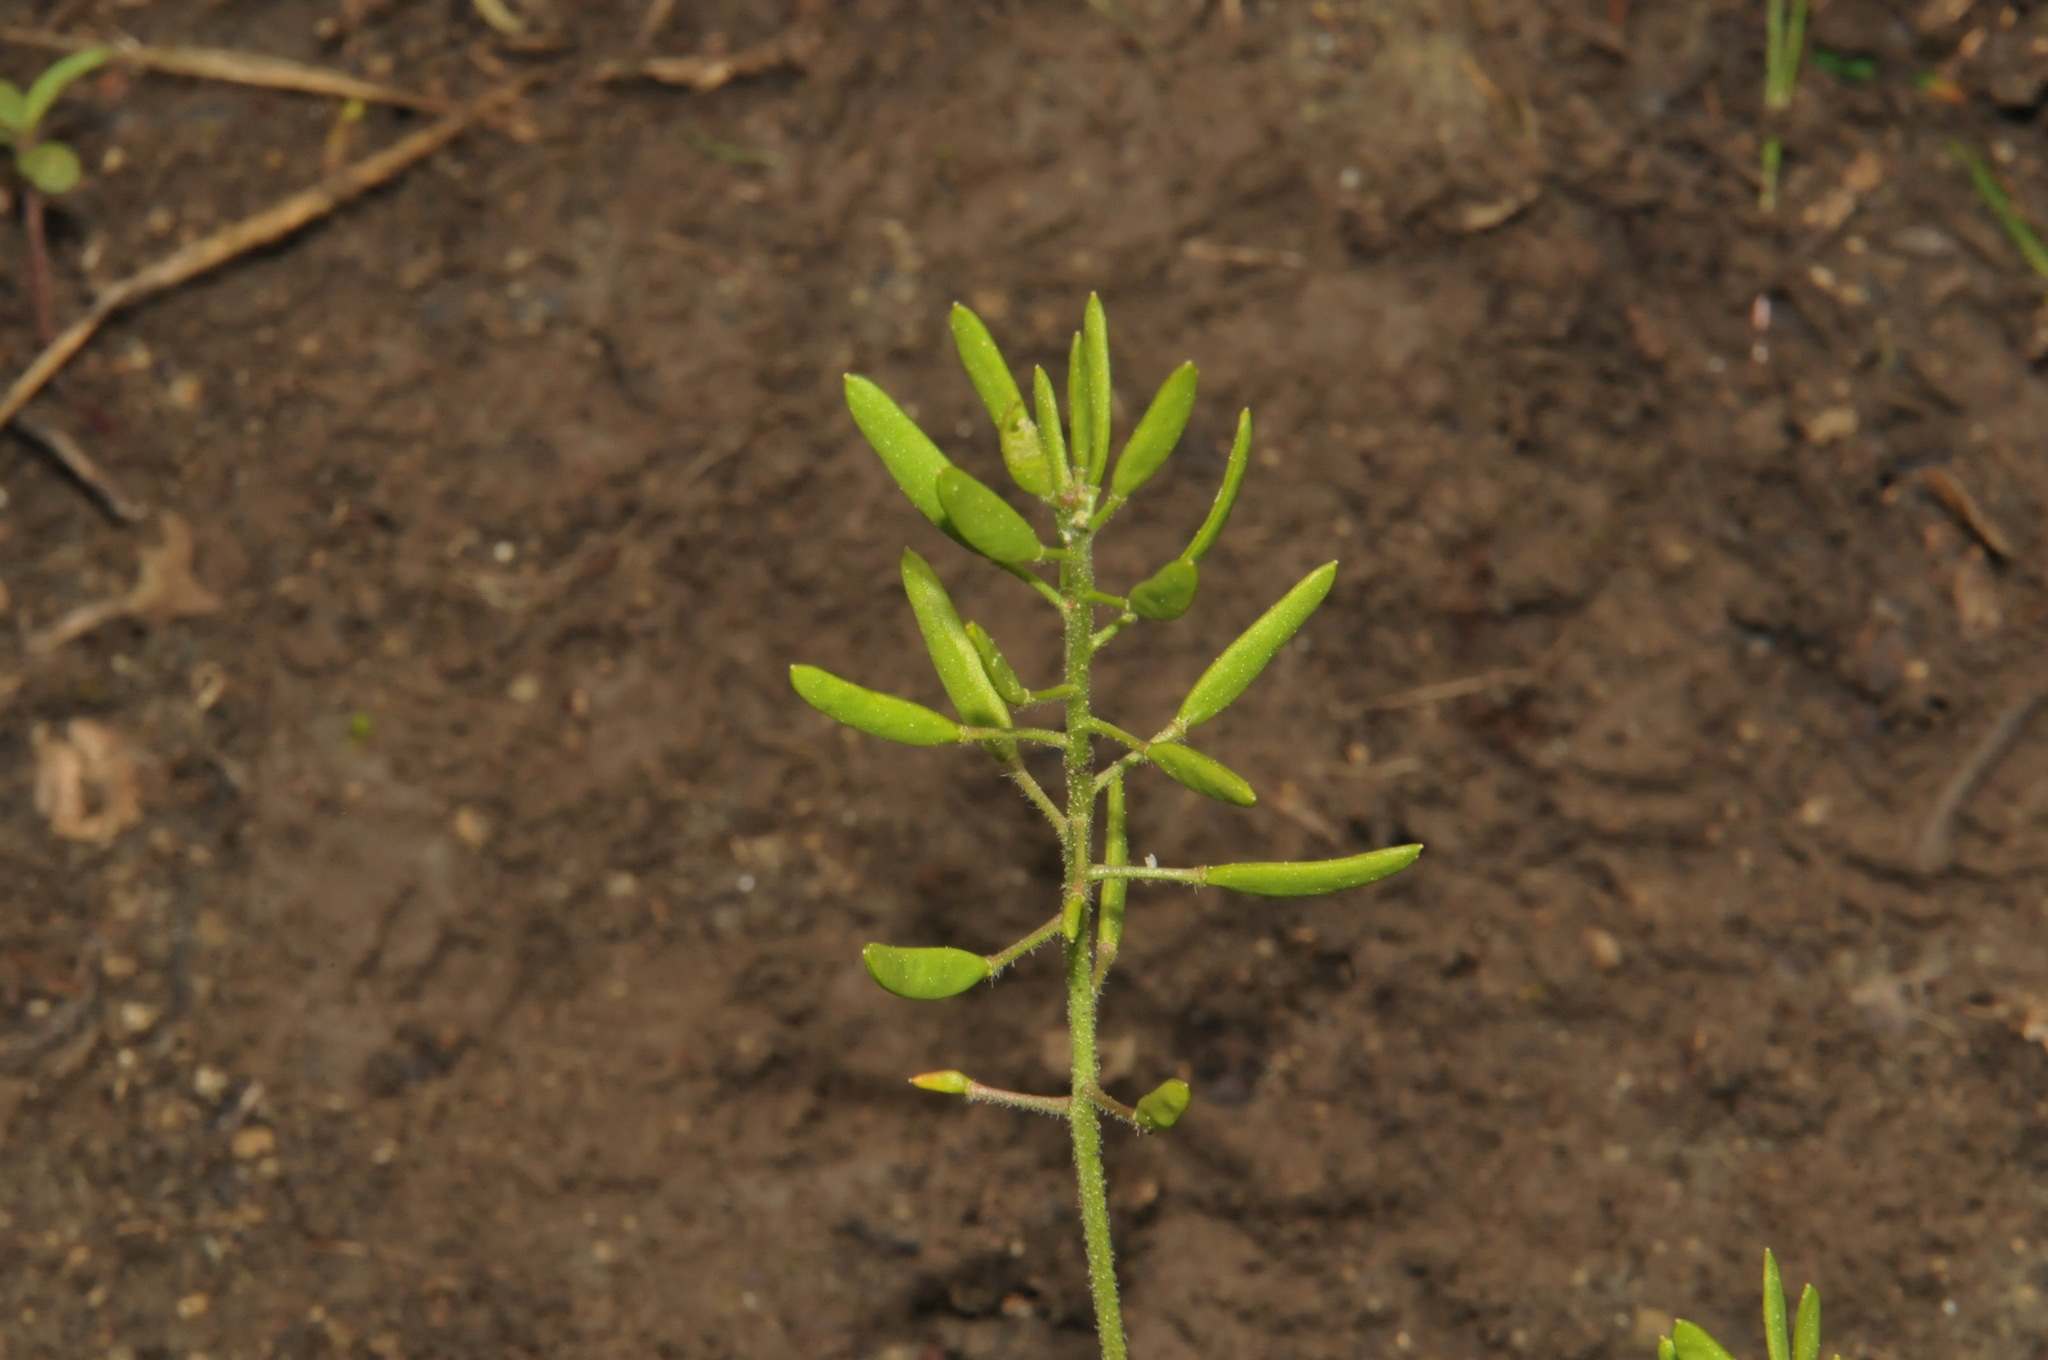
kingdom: Plantae
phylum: Tracheophyta
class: Magnoliopsida
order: Brassicales
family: Brassicaceae
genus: Tomostima
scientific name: Tomostima cuneifolia
